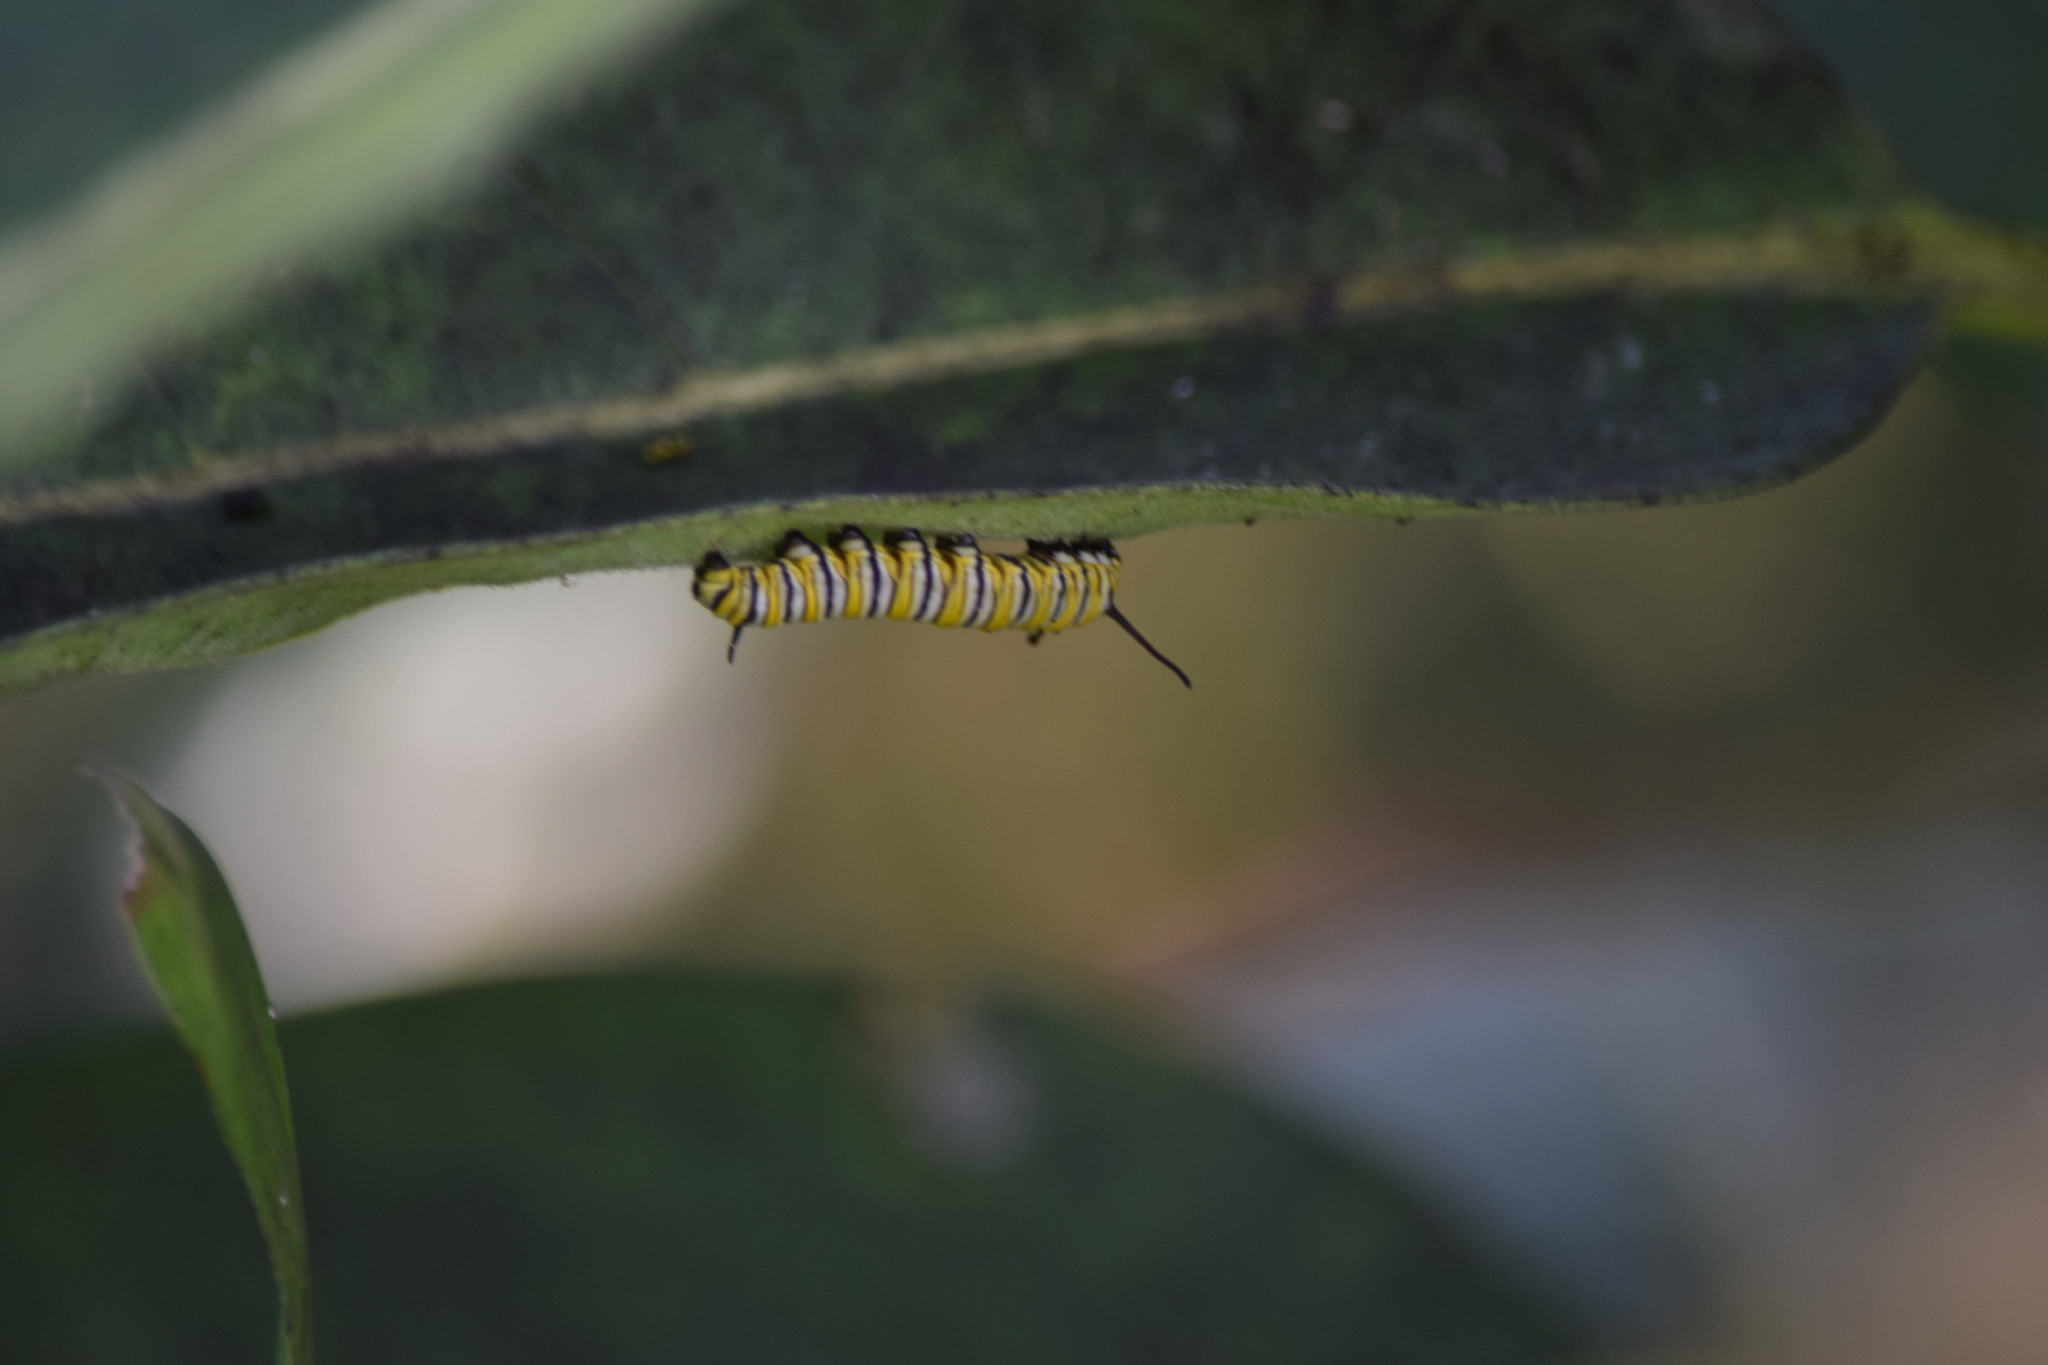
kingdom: Animalia
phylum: Arthropoda
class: Insecta
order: Lepidoptera
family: Nymphalidae
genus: Danaus
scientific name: Danaus plexippus
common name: Monarch
